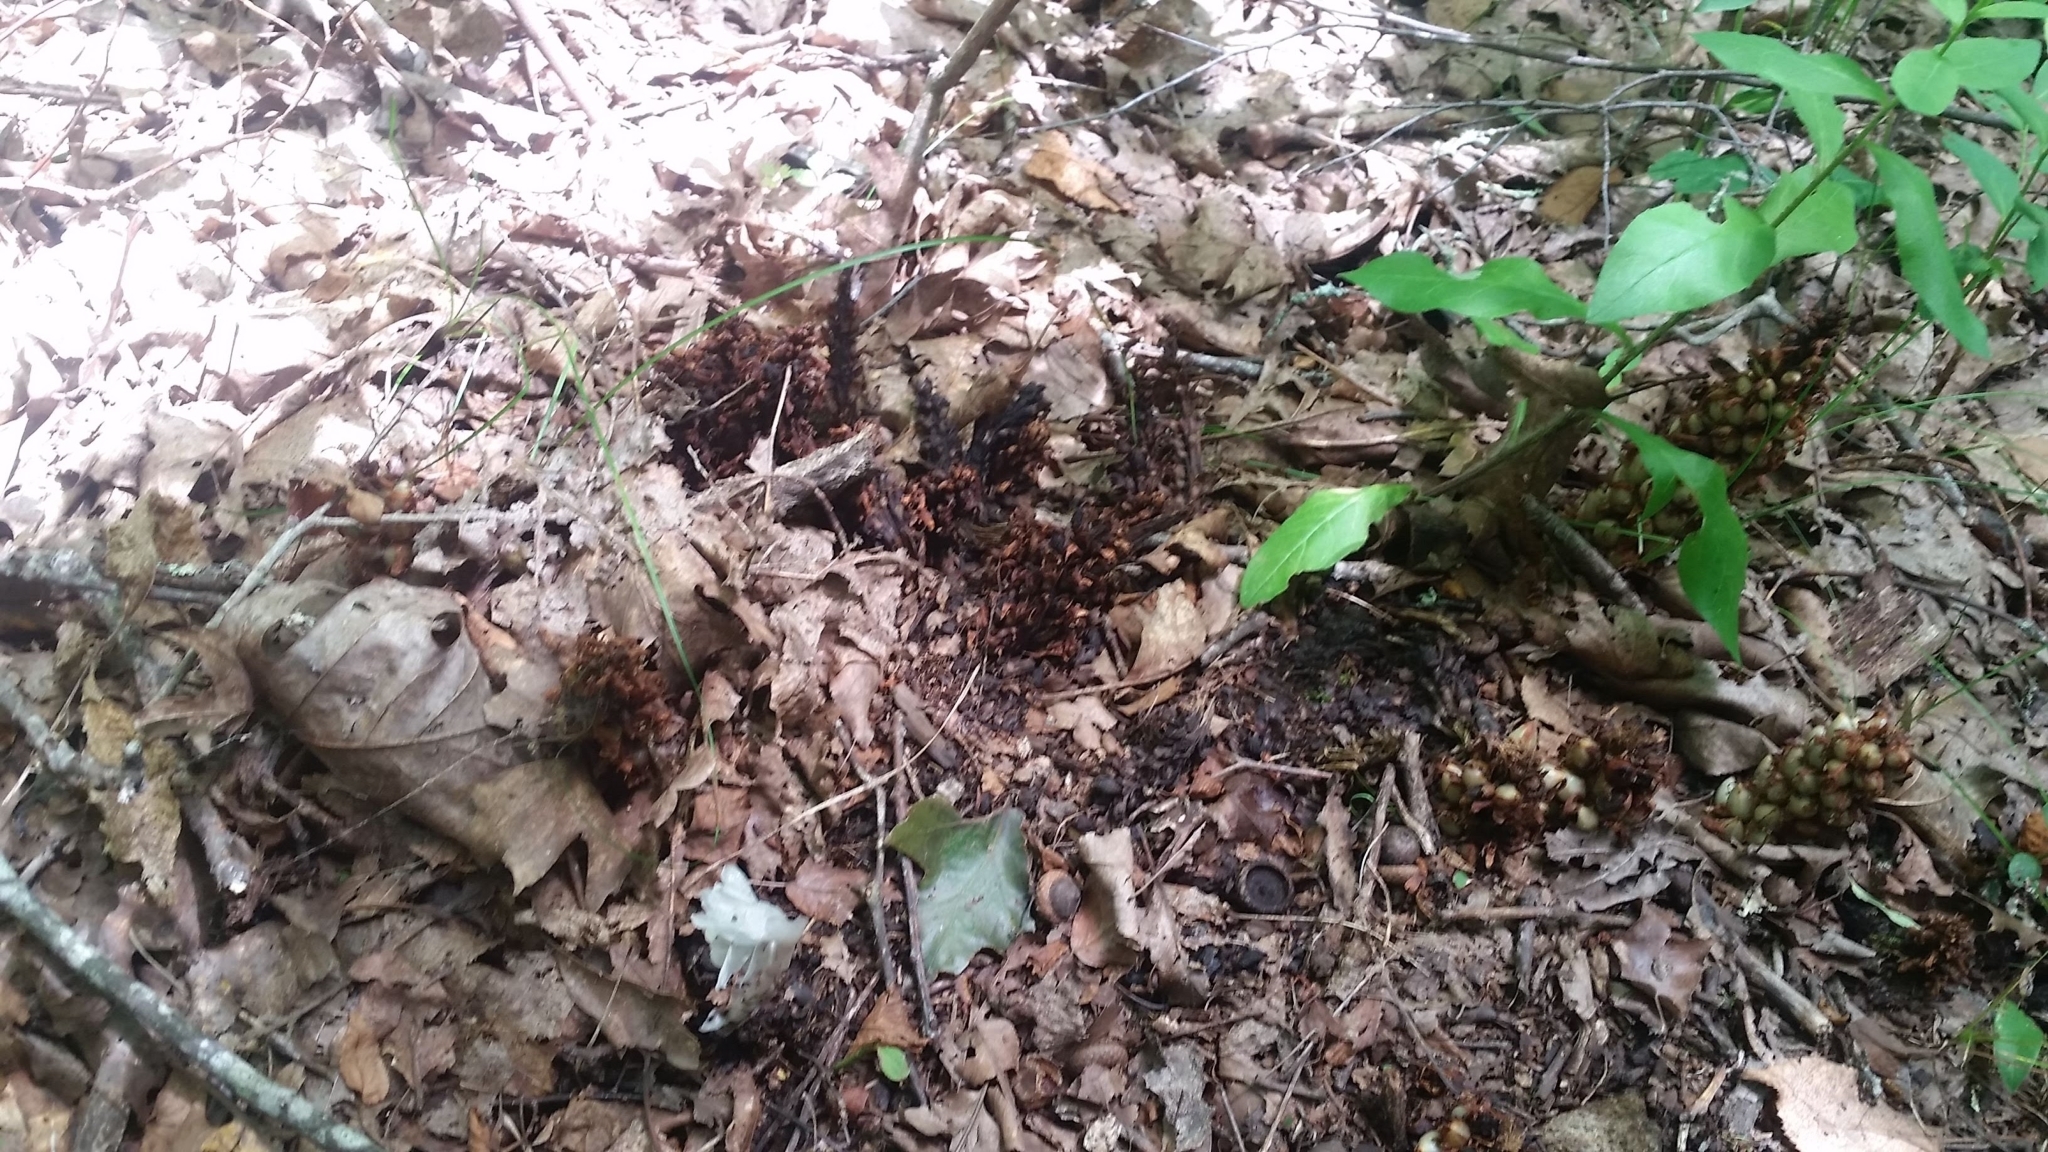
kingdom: Plantae
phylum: Tracheophyta
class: Magnoliopsida
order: Lamiales
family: Orobanchaceae
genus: Conopholis
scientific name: Conopholis americana
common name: American cancer-root
